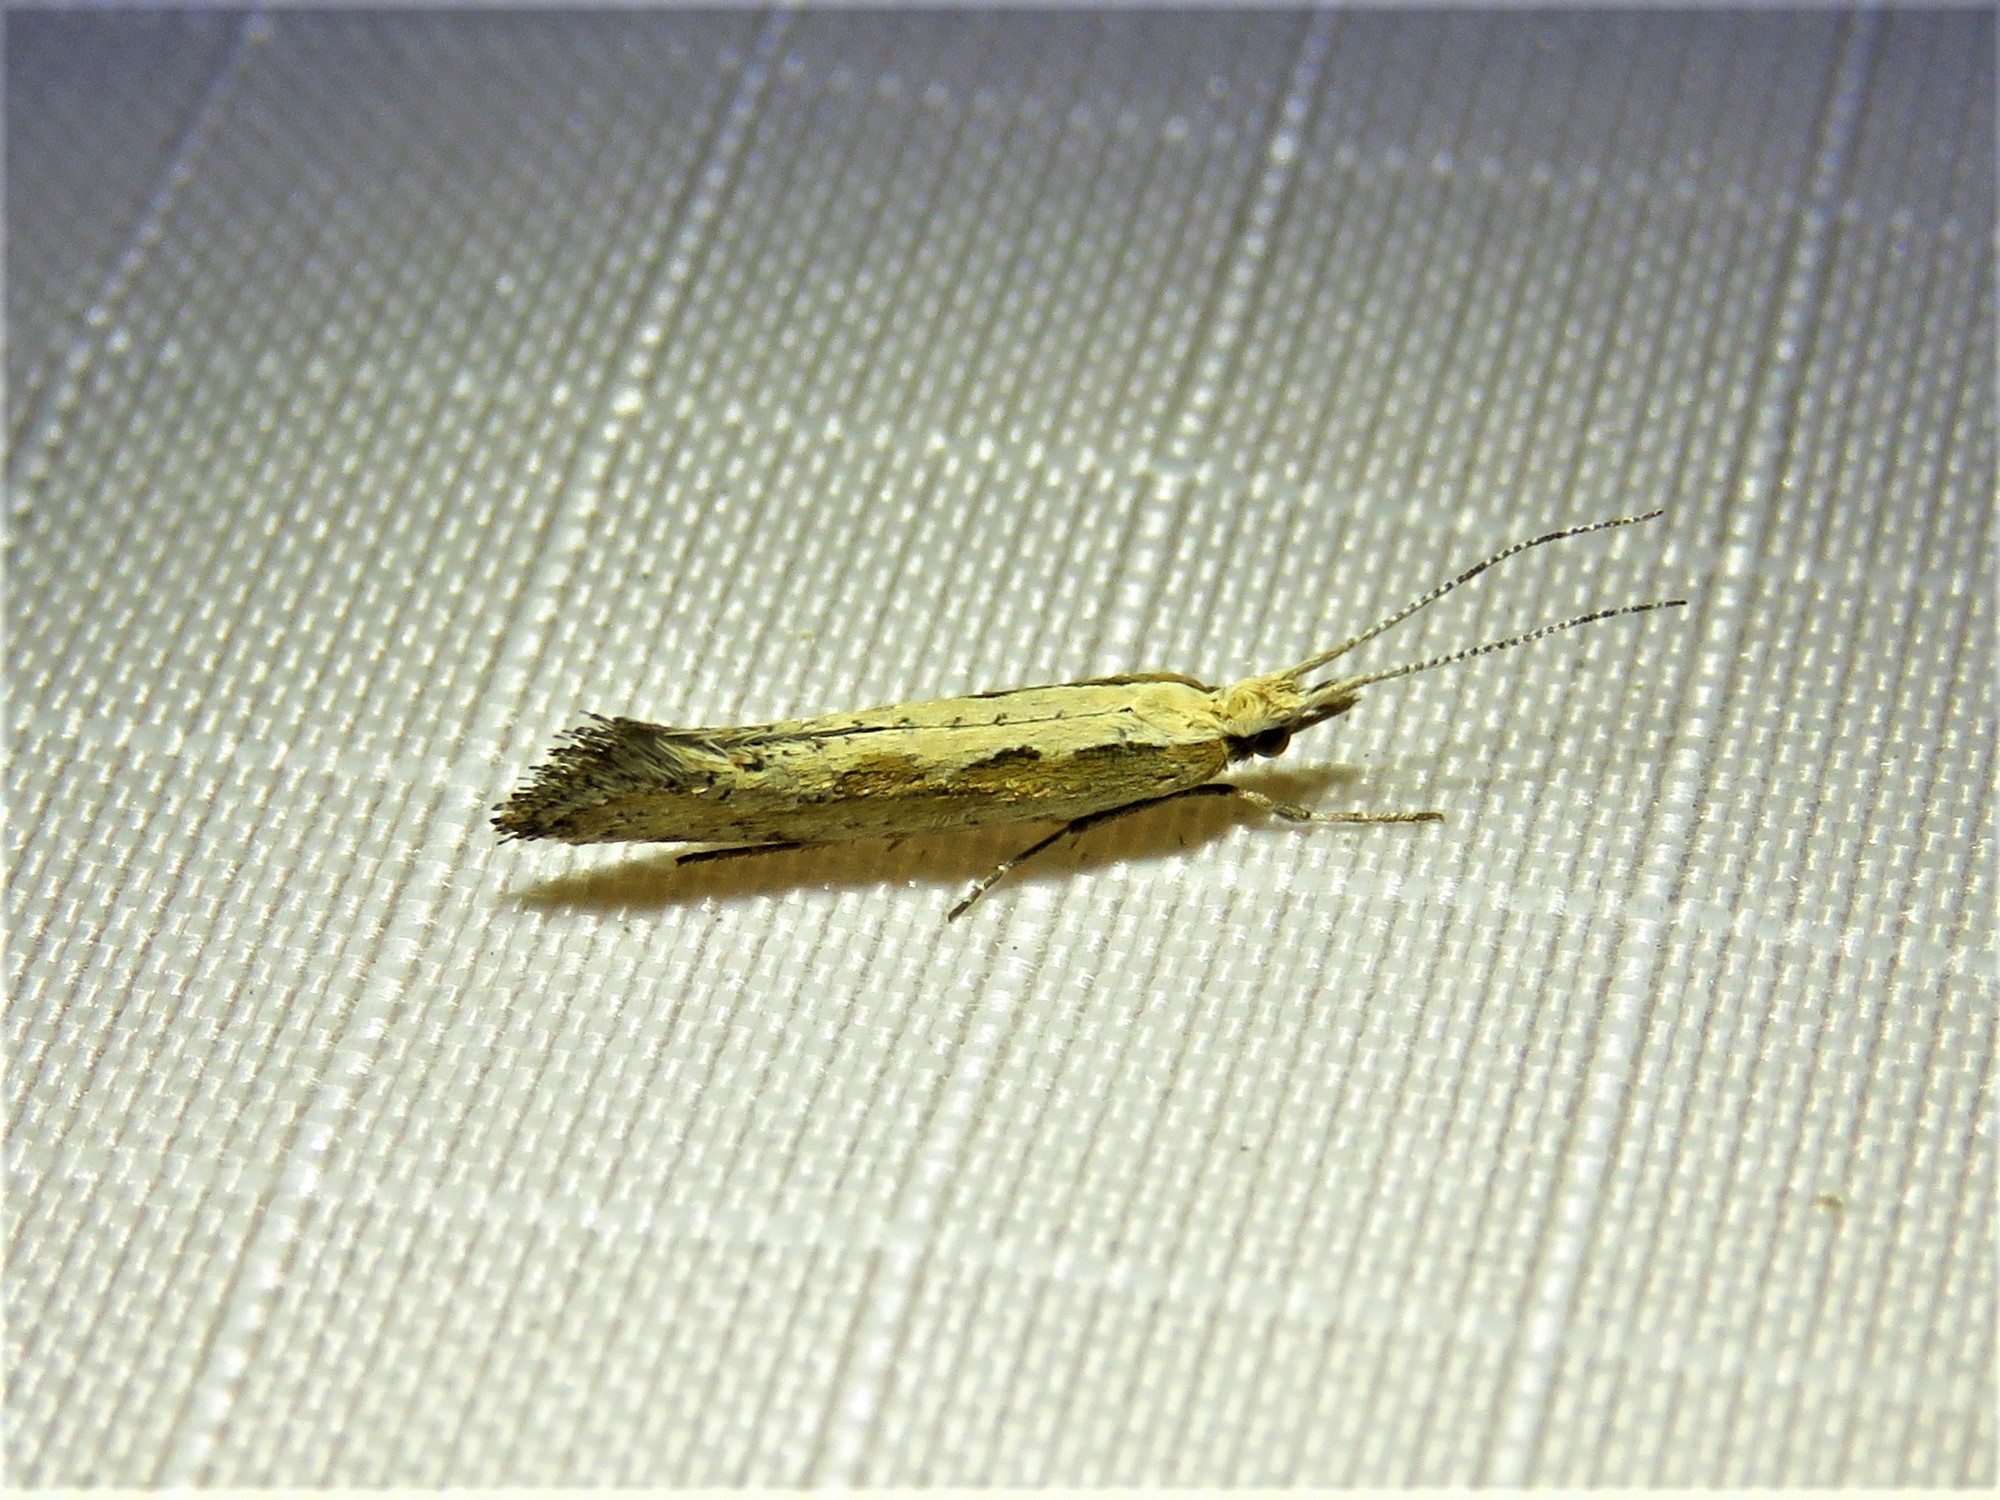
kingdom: Animalia
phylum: Arthropoda
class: Insecta
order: Lepidoptera
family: Plutellidae
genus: Plutella
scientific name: Plutella xylostella
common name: Diamond-back moth
